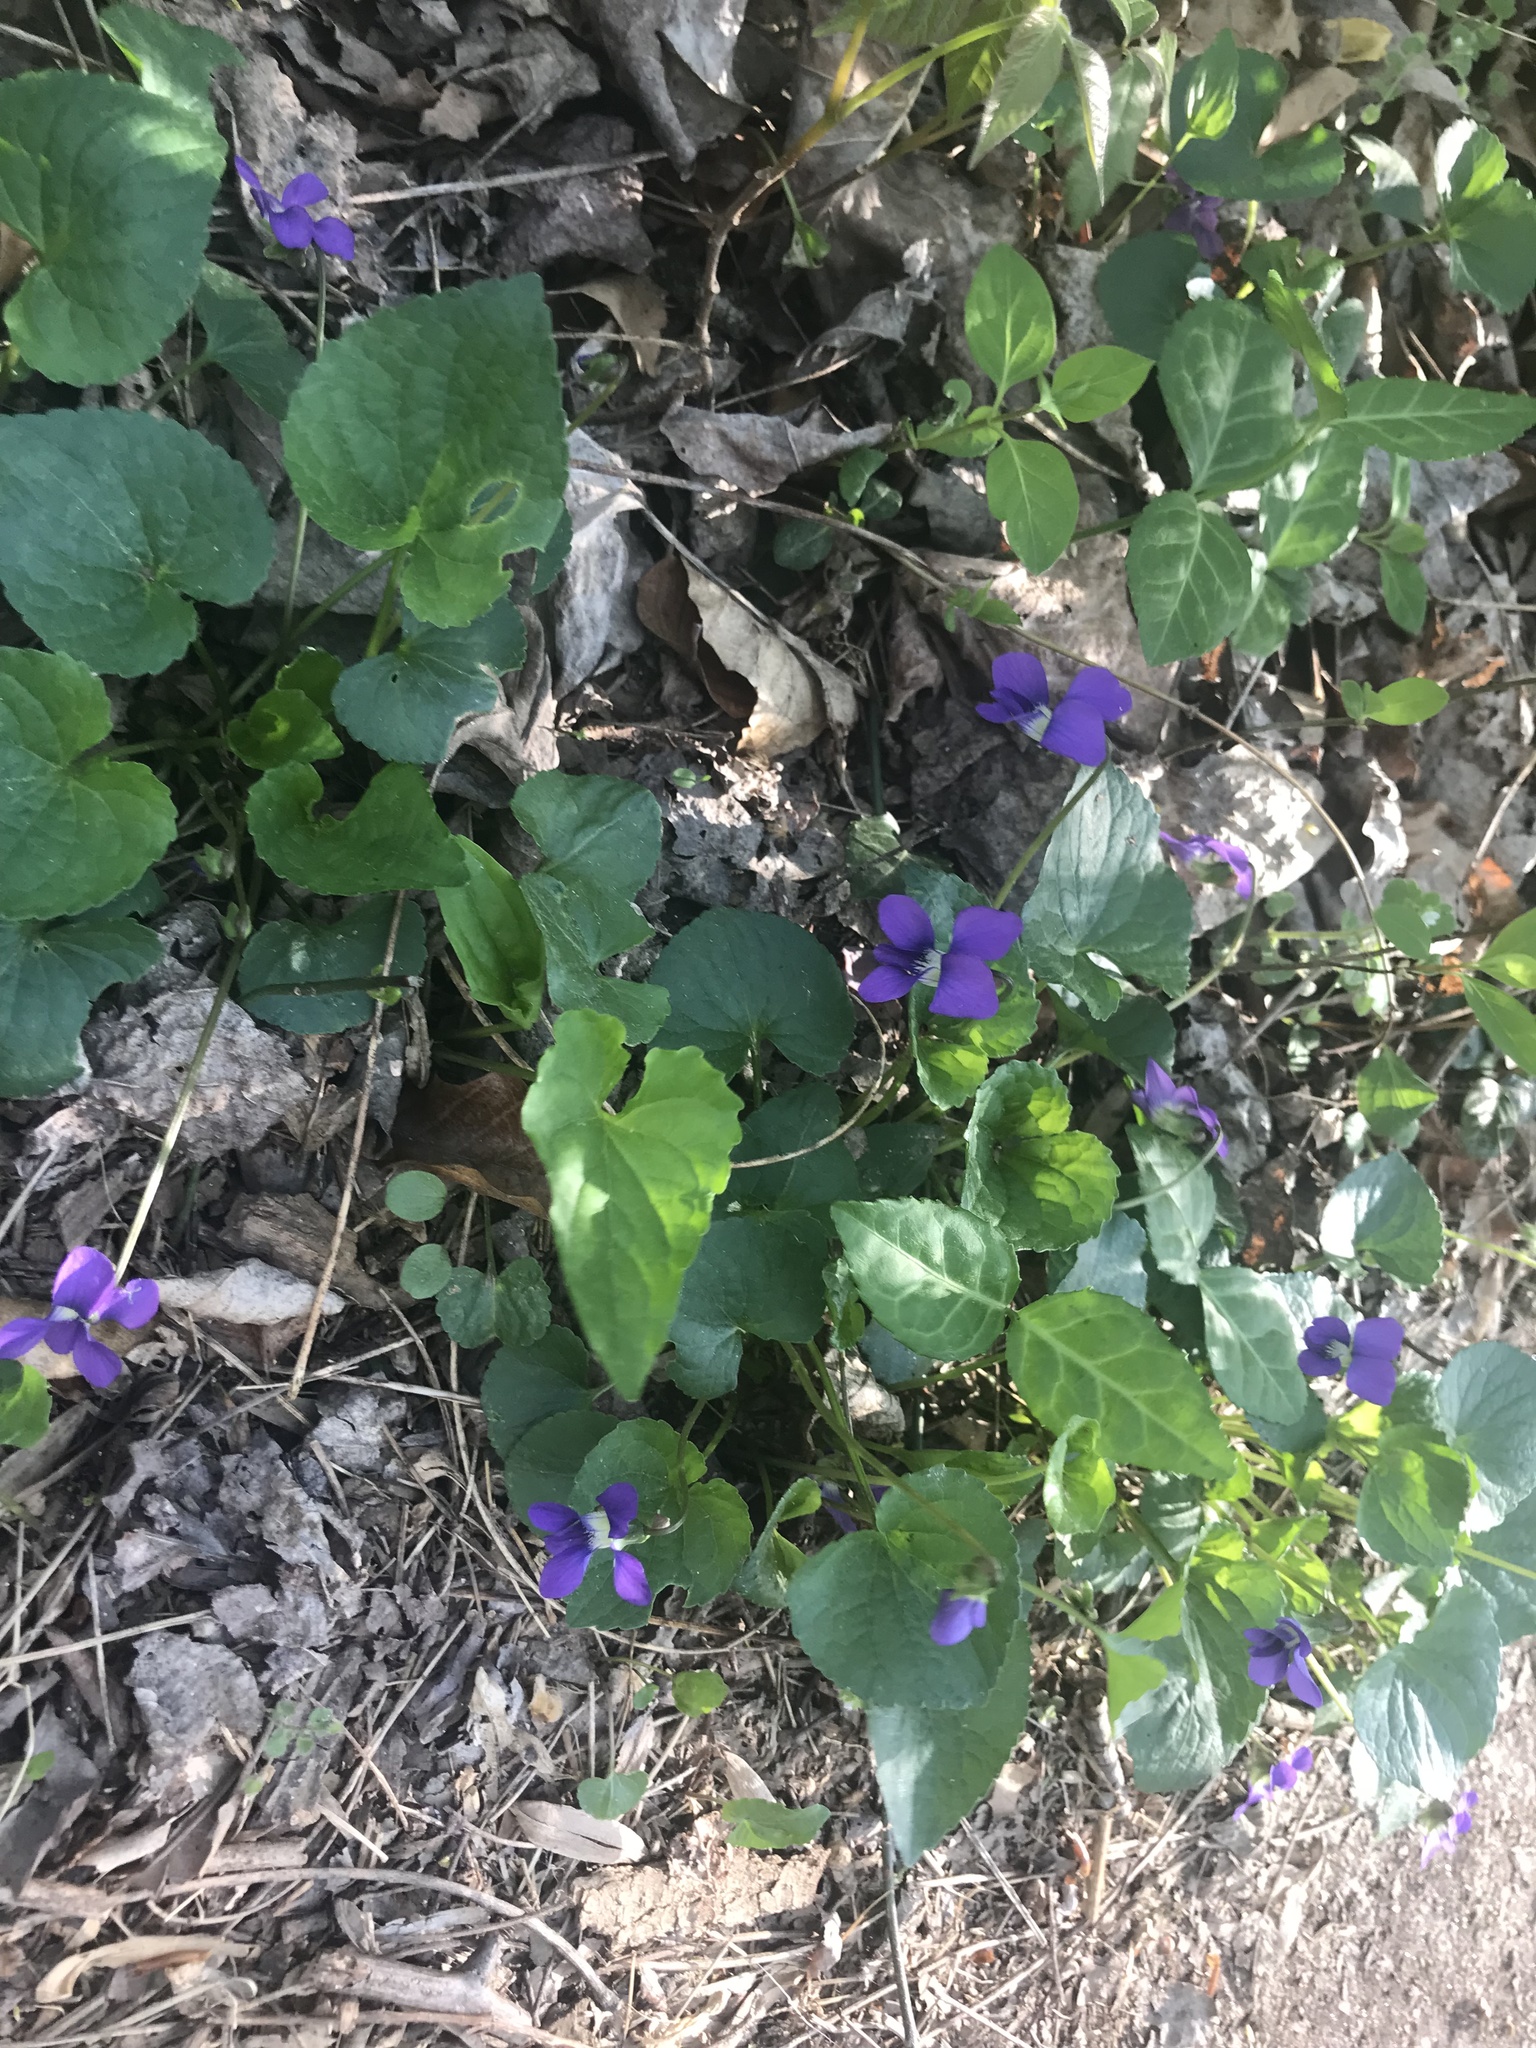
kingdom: Plantae
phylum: Tracheophyta
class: Magnoliopsida
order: Malpighiales
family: Violaceae
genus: Viola
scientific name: Viola sororia
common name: Dooryard violet
